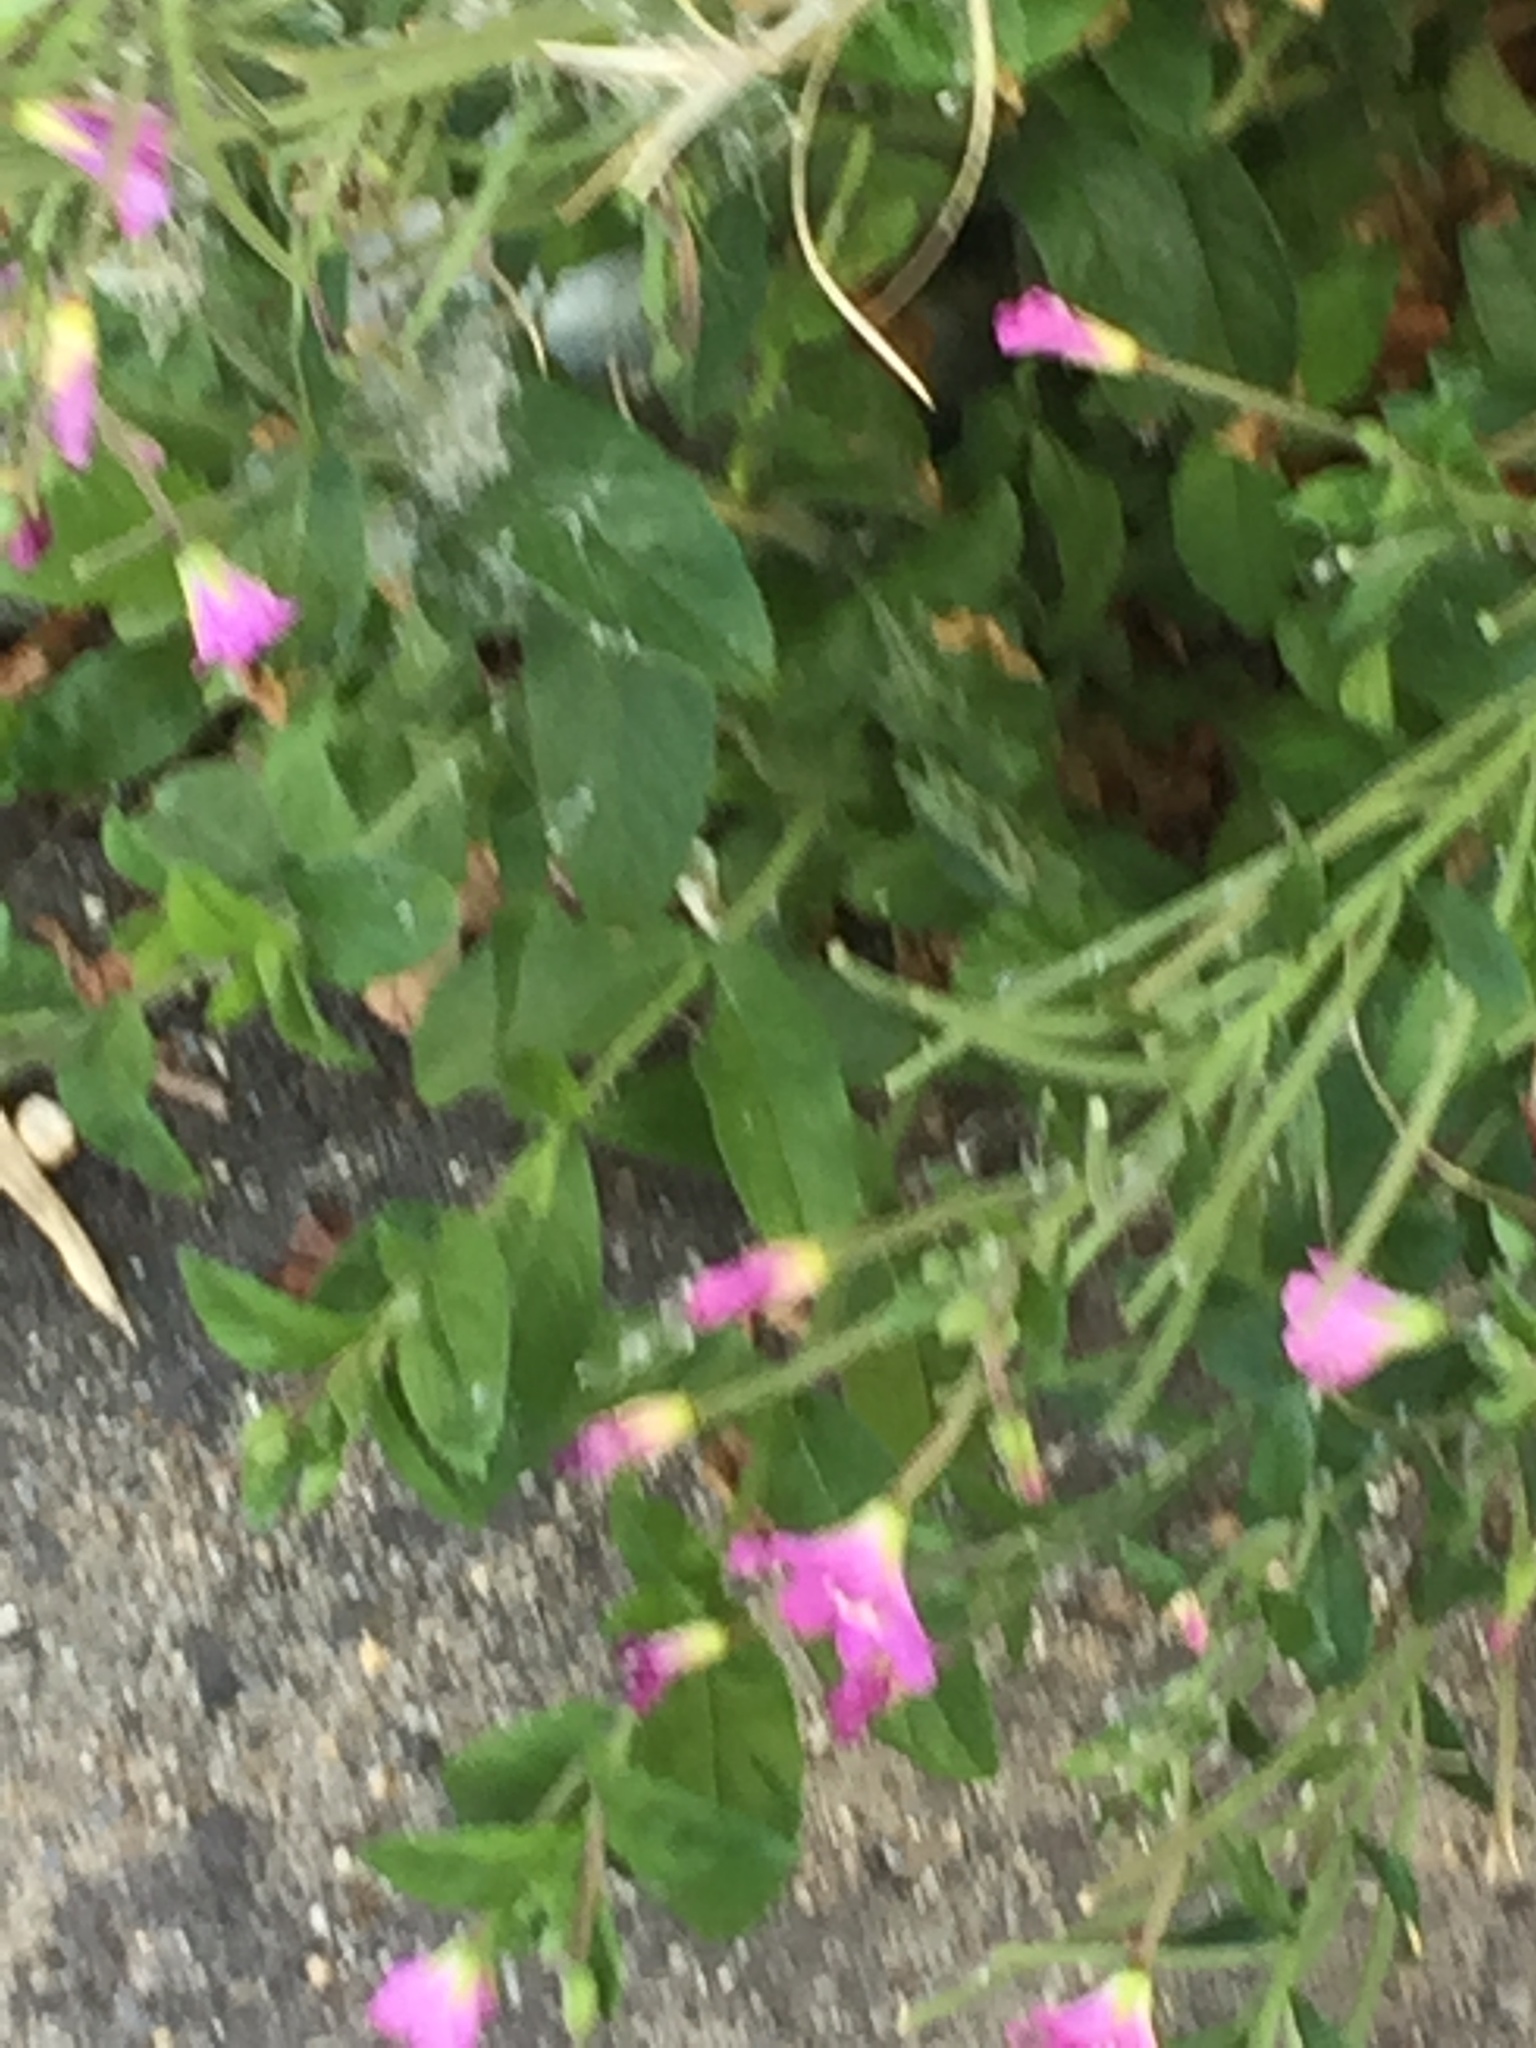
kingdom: Plantae
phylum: Tracheophyta
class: Magnoliopsida
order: Myrtales
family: Onagraceae
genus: Epilobium
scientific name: Epilobium hirsutum
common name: Great willowherb
